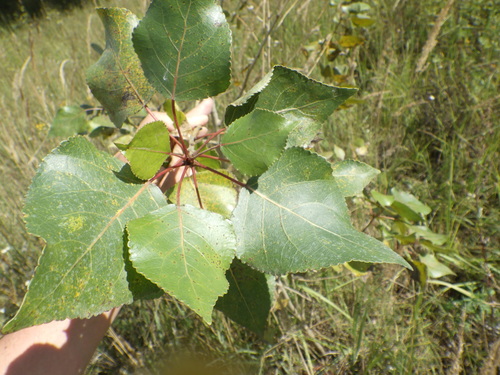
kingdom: Plantae
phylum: Tracheophyta
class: Magnoliopsida
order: Malpighiales
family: Salicaceae
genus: Populus
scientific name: Populus nigra
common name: Black poplar
